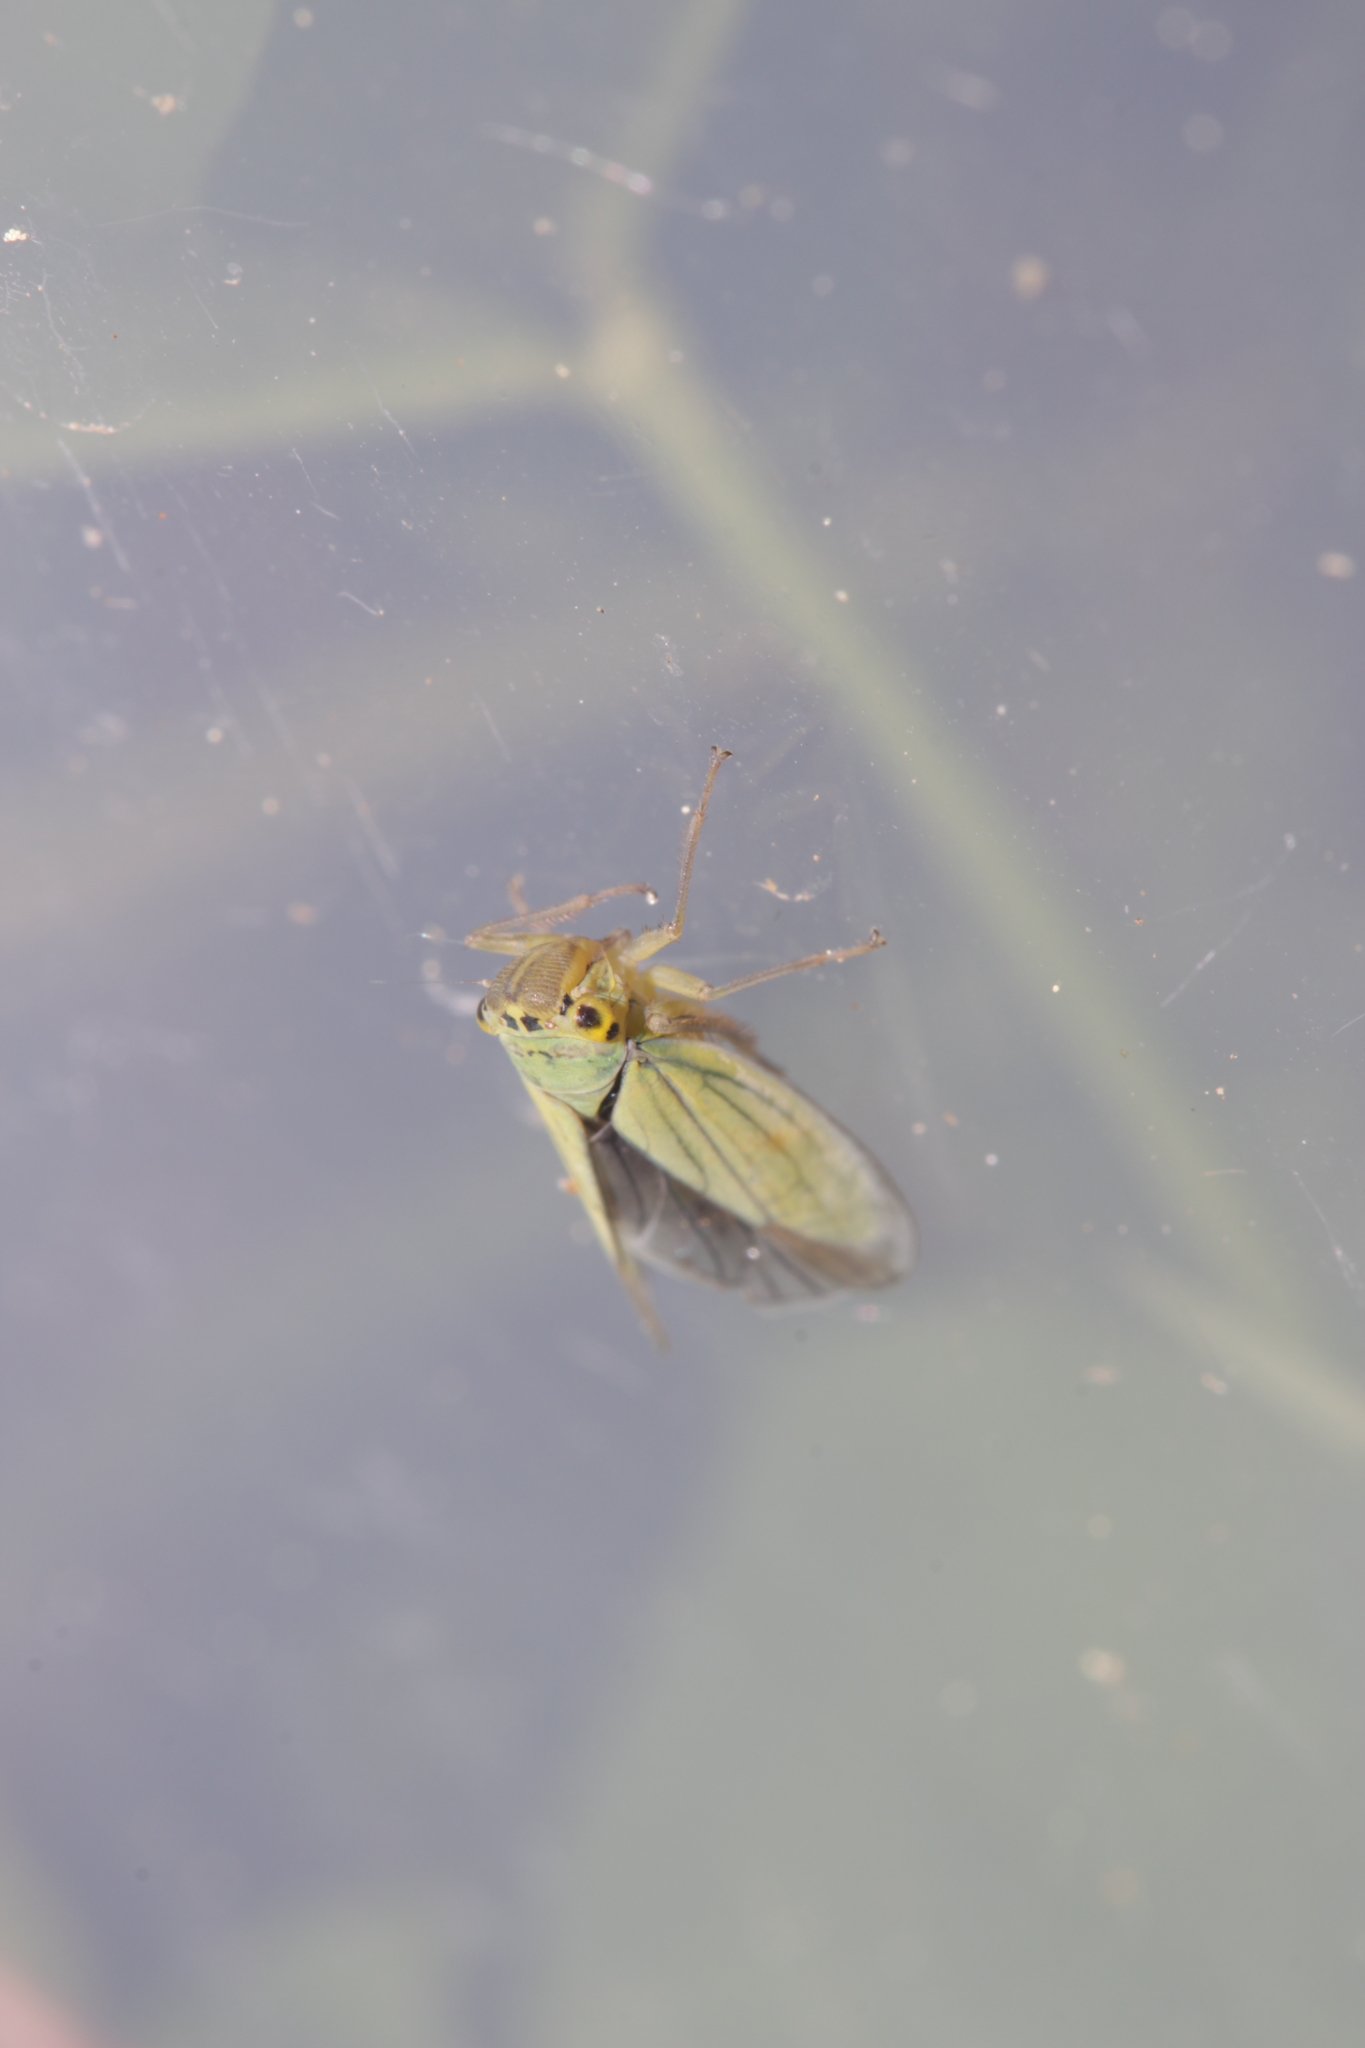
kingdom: Animalia
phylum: Arthropoda
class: Insecta
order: Hemiptera
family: Cicadellidae
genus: Cicadella
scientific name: Cicadella viridis
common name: Leafhopper
